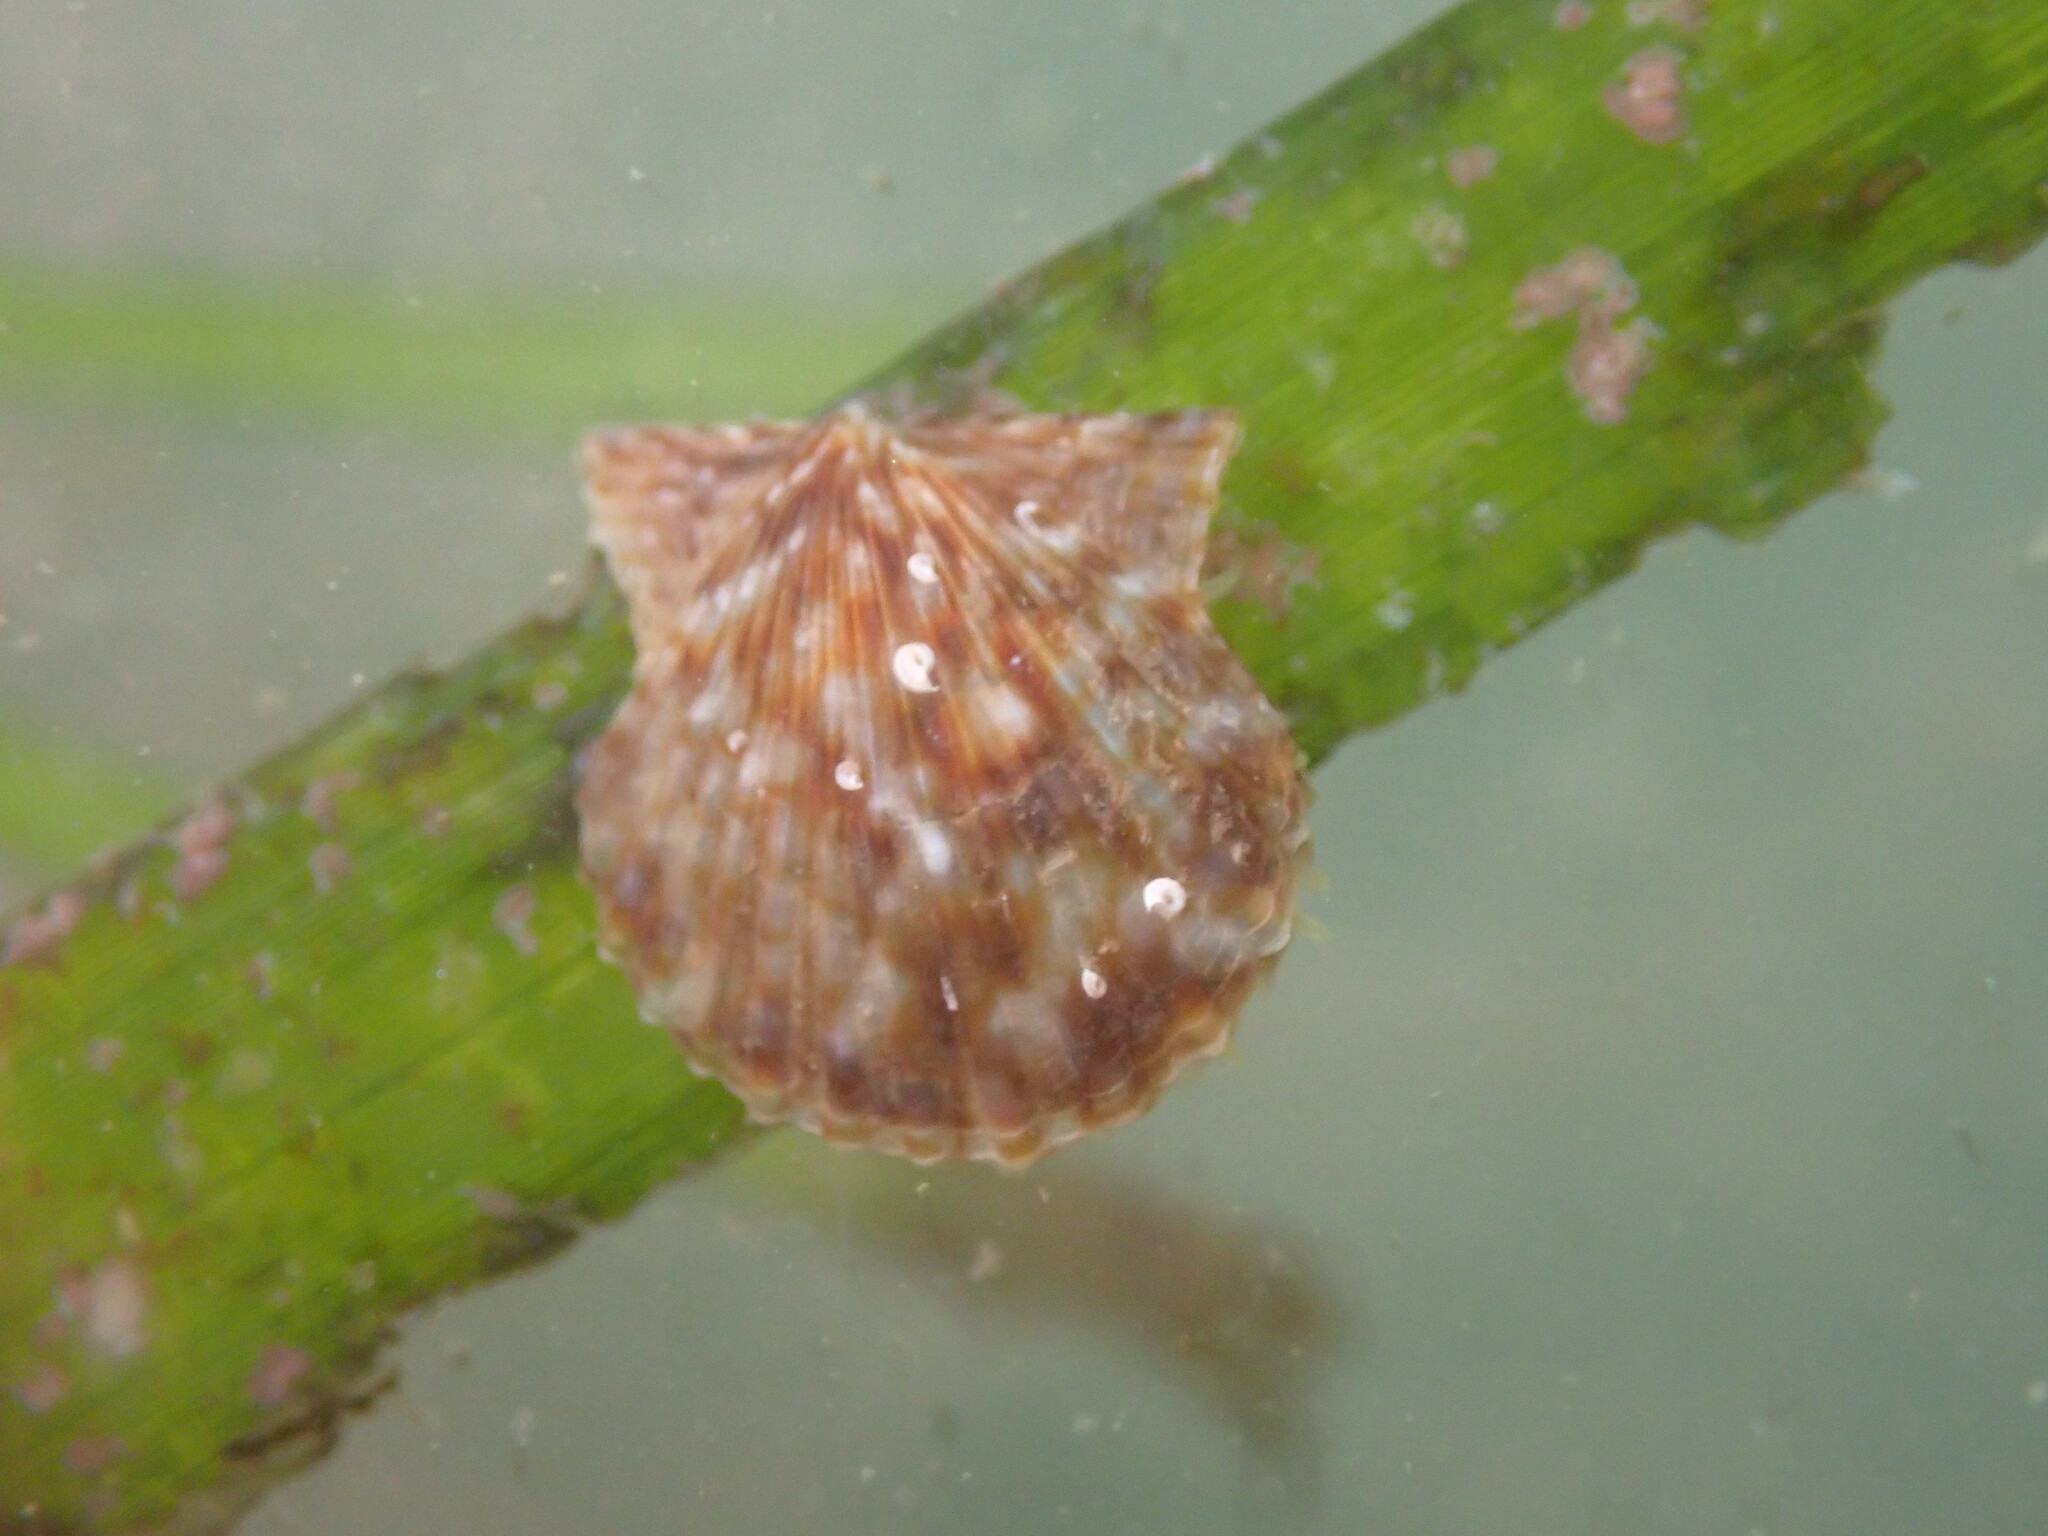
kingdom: Animalia
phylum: Mollusca
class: Bivalvia
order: Pectinida
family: Pectinidae
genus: Leptopecten
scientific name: Leptopecten latiauratus
